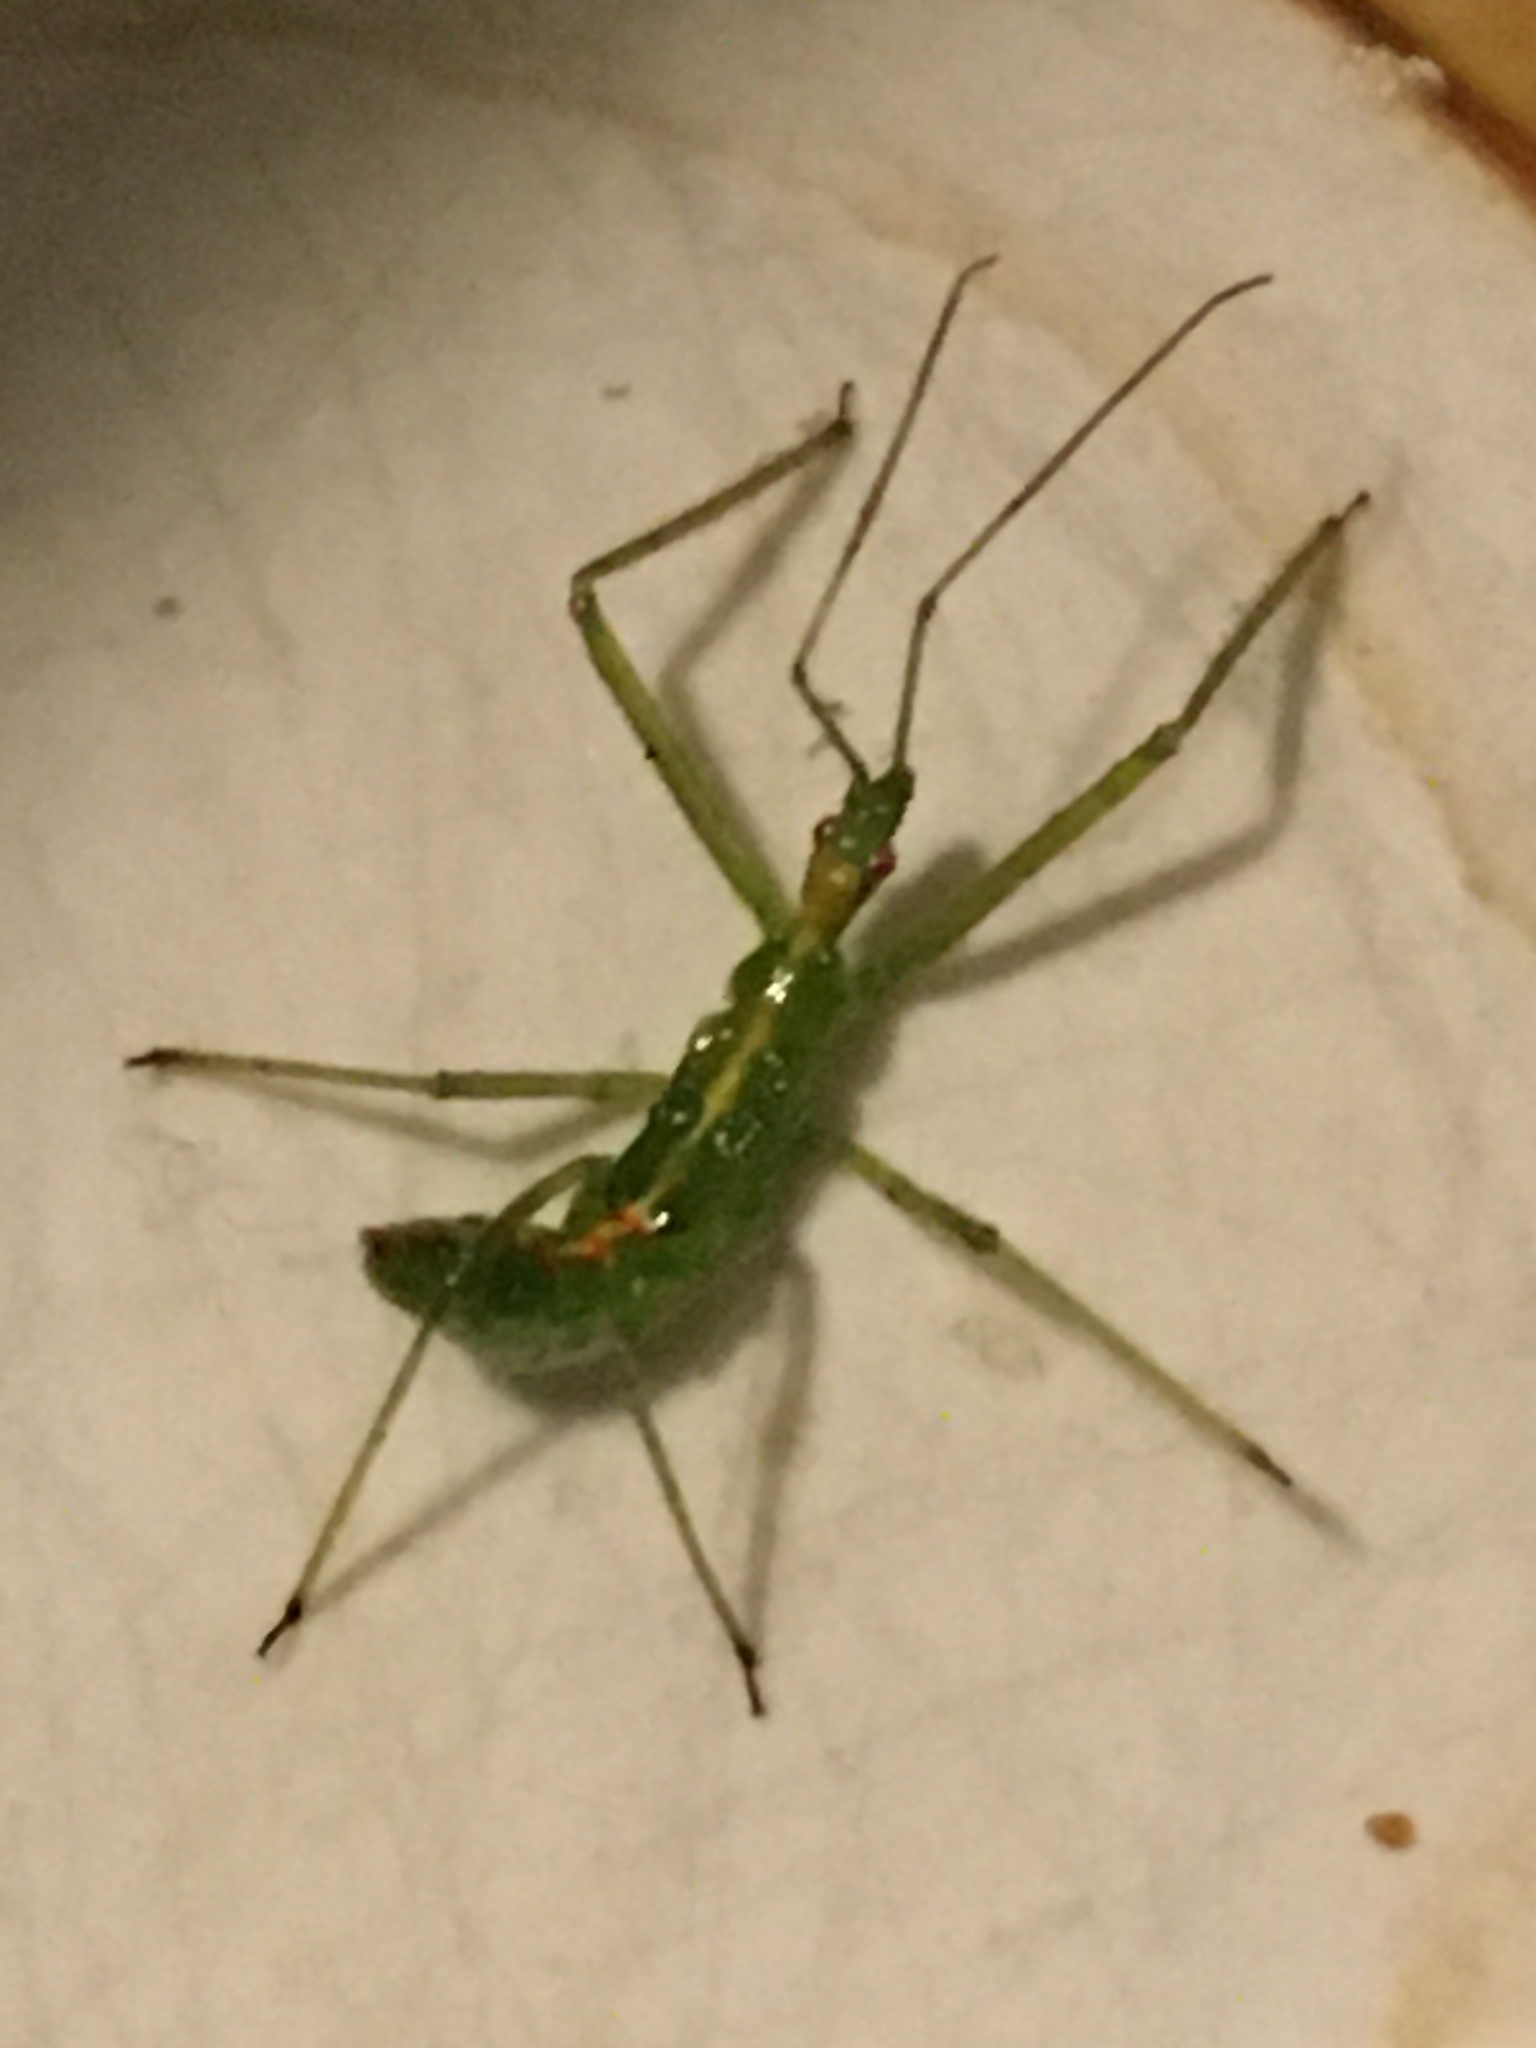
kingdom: Animalia
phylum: Arthropoda
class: Insecta
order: Hemiptera
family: Reduviidae
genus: Zelus
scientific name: Zelus luridus
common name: Pale green assassin bug
